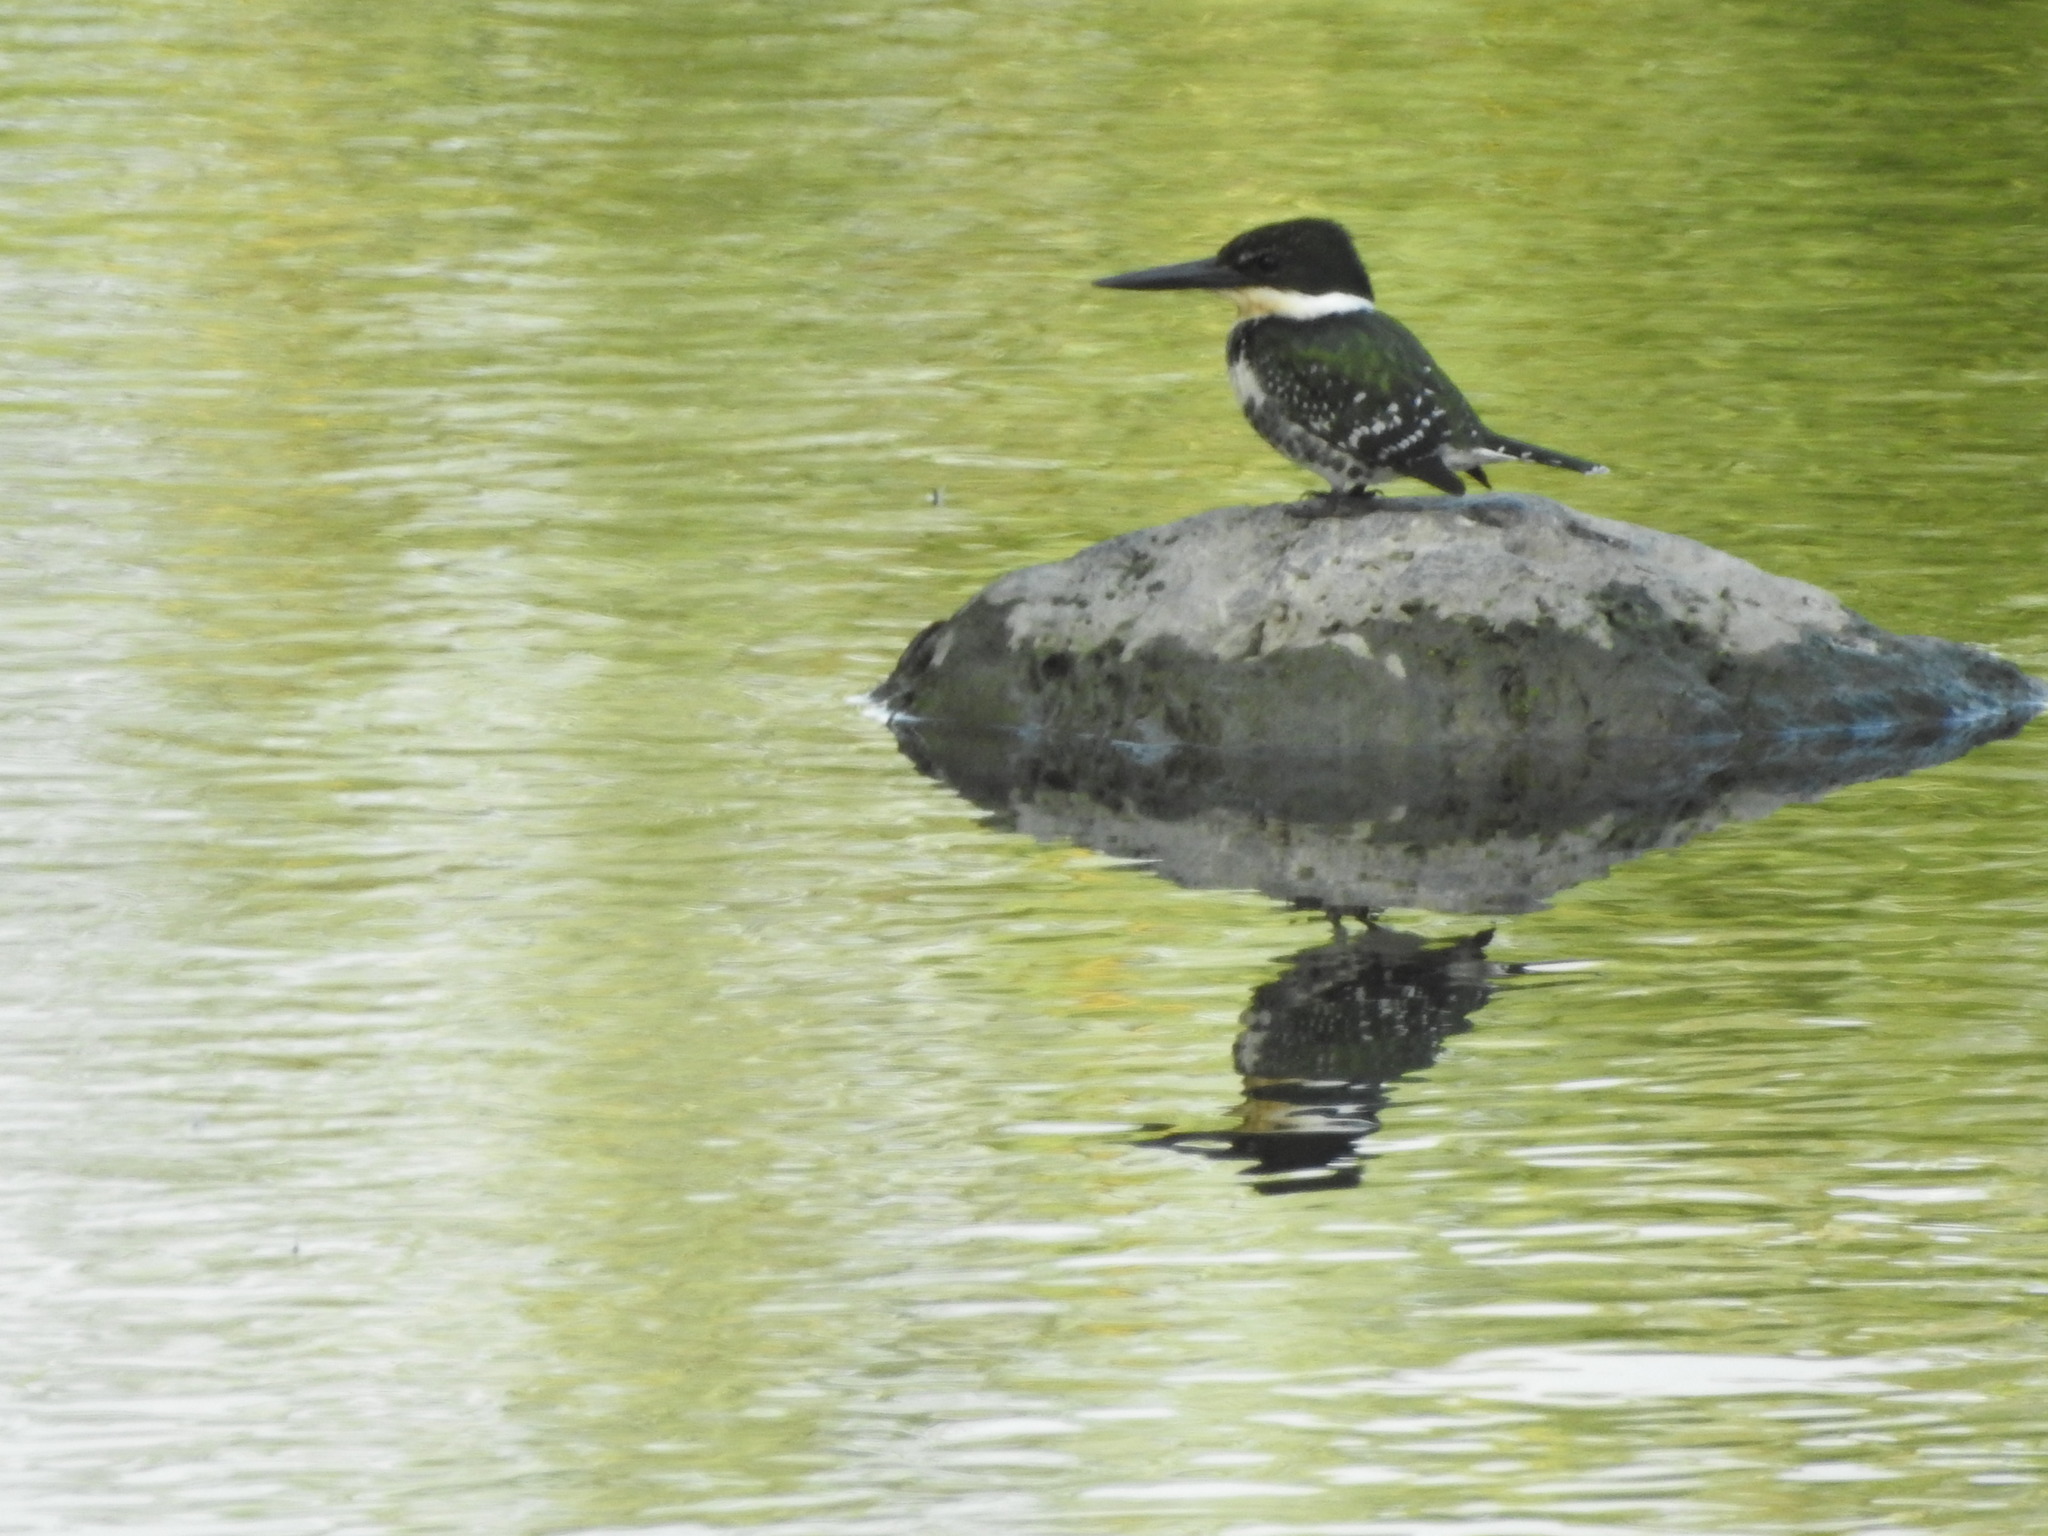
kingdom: Animalia
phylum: Chordata
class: Aves
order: Coraciiformes
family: Alcedinidae
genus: Chloroceryle
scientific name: Chloroceryle americana
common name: Green kingfisher
